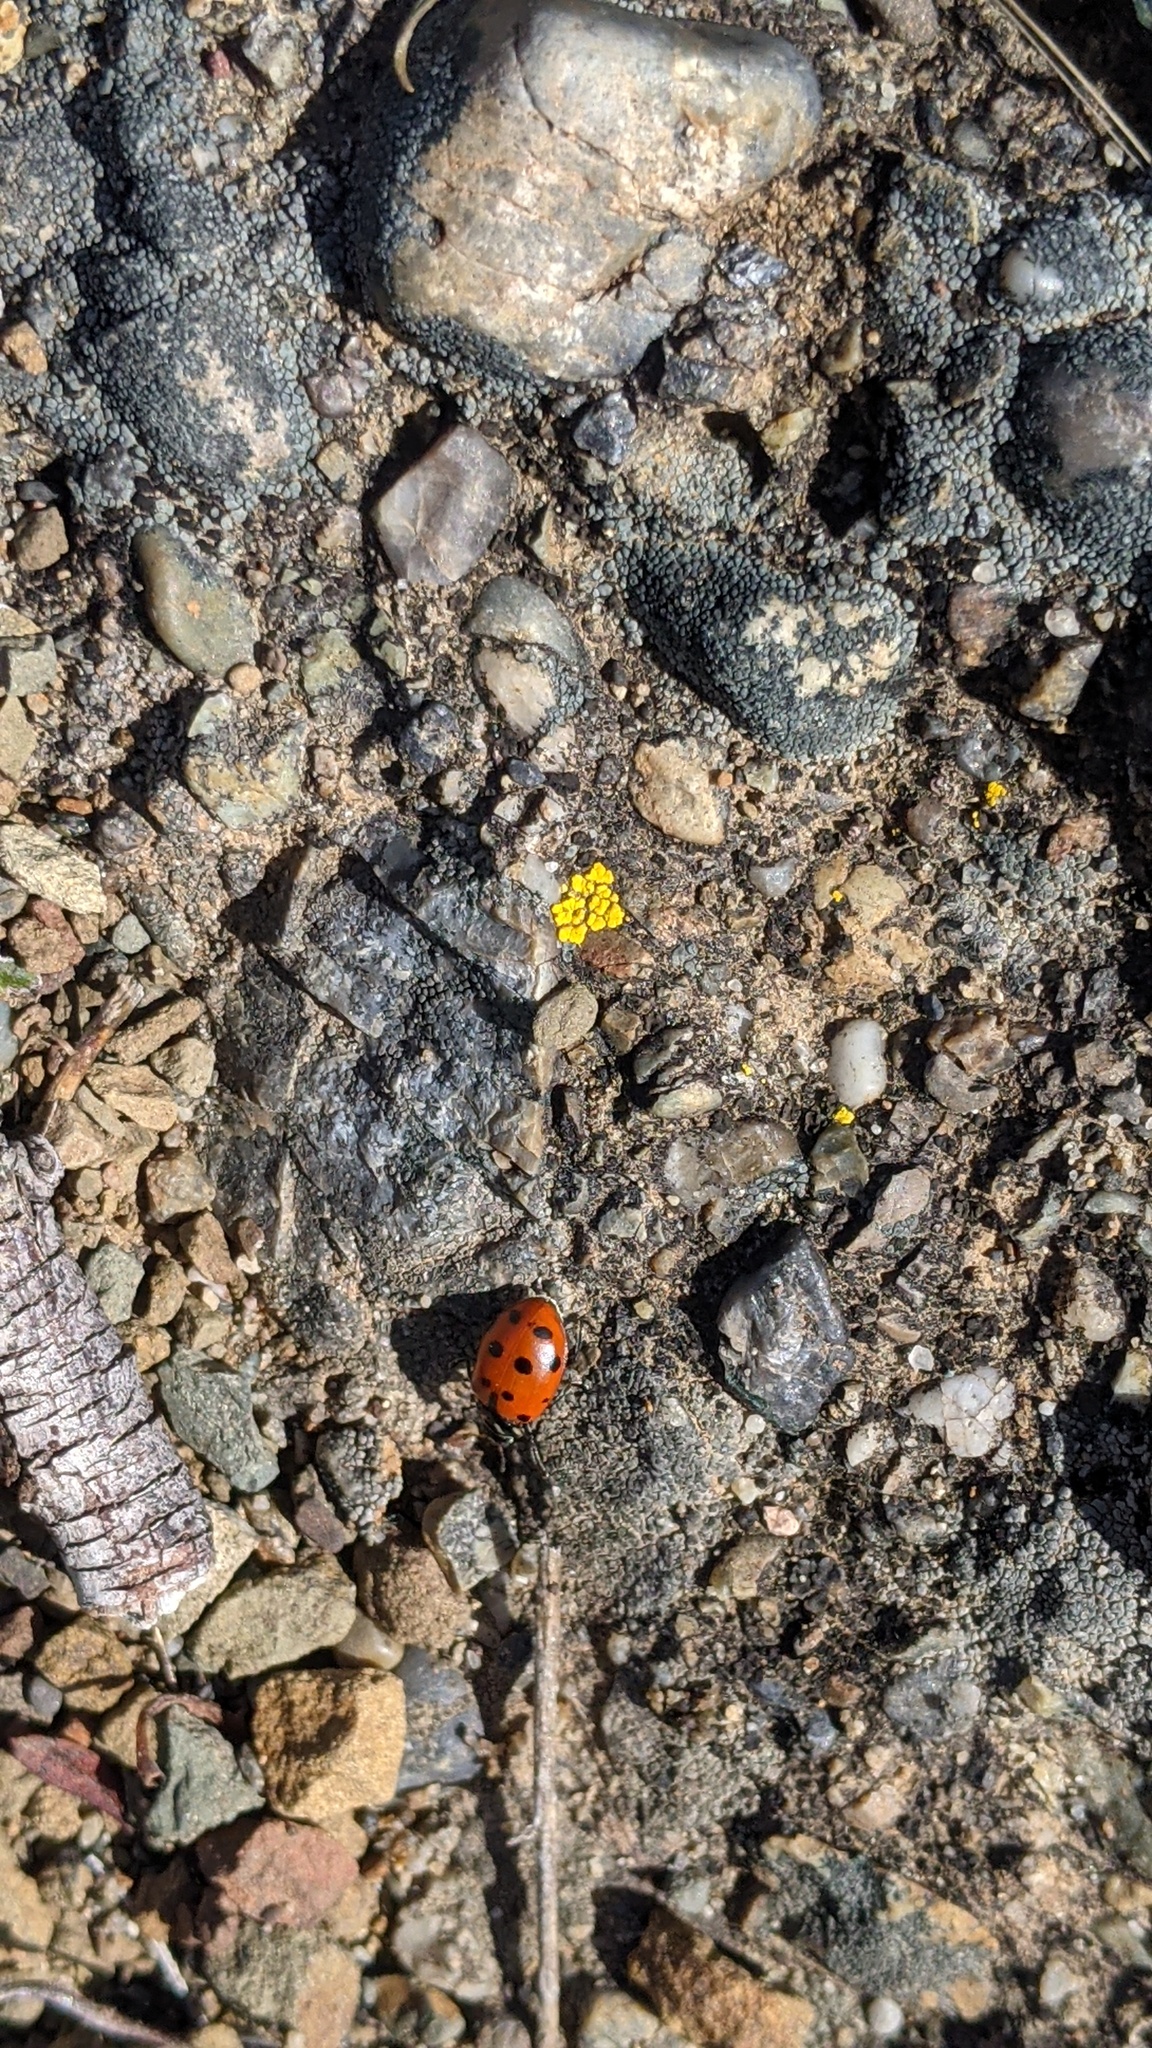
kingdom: Animalia
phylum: Arthropoda
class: Insecta
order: Coleoptera
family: Coccinellidae
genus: Hippodamia
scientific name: Hippodamia convergens
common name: Convergent lady beetle
